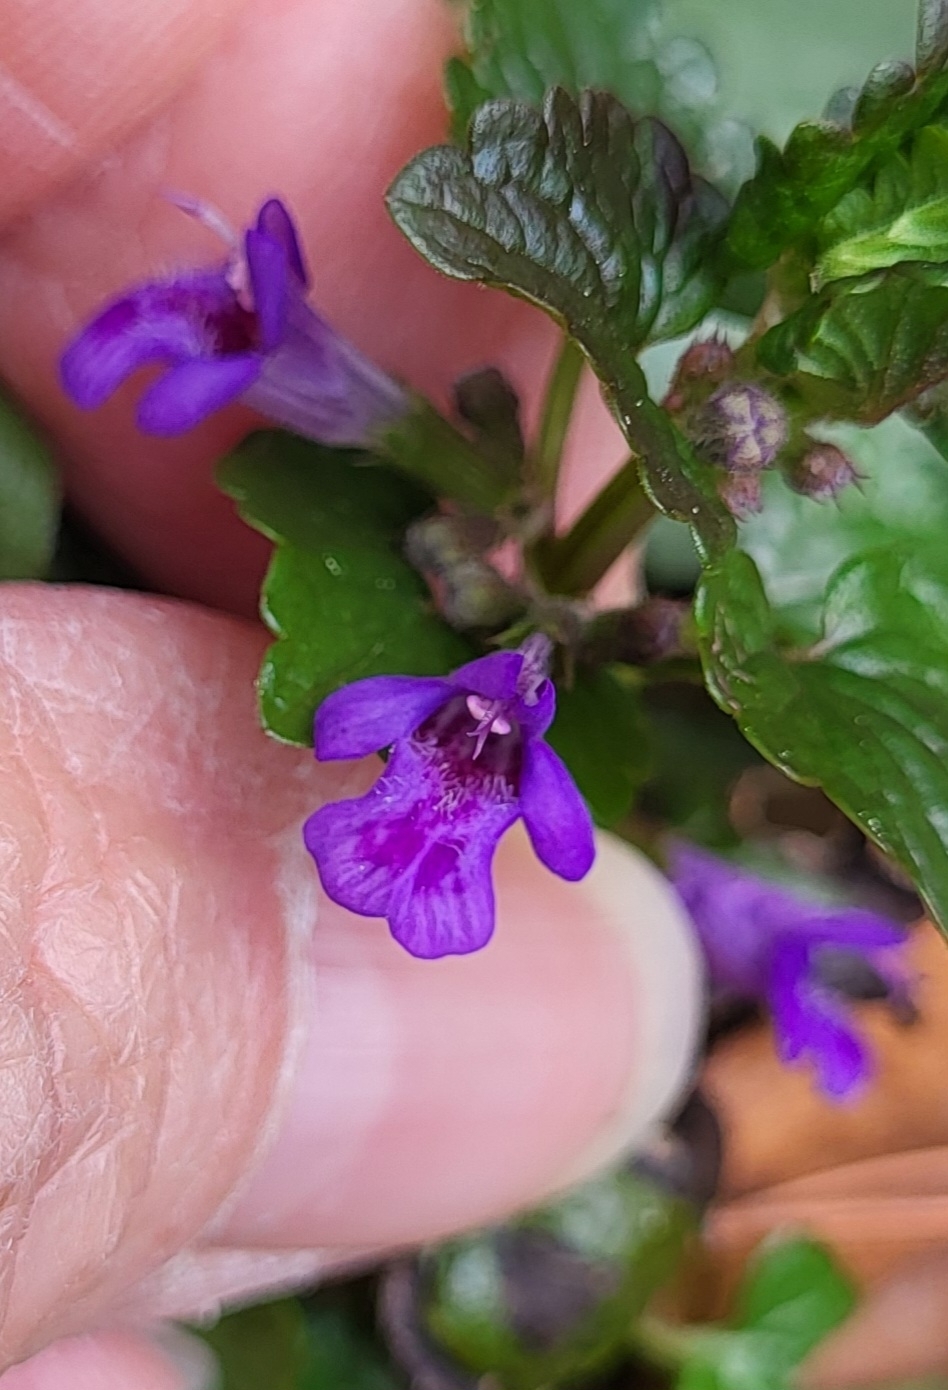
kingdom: Plantae
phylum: Tracheophyta
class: Magnoliopsida
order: Lamiales
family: Lamiaceae
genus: Glechoma
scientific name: Glechoma hederacea
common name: Ground ivy
